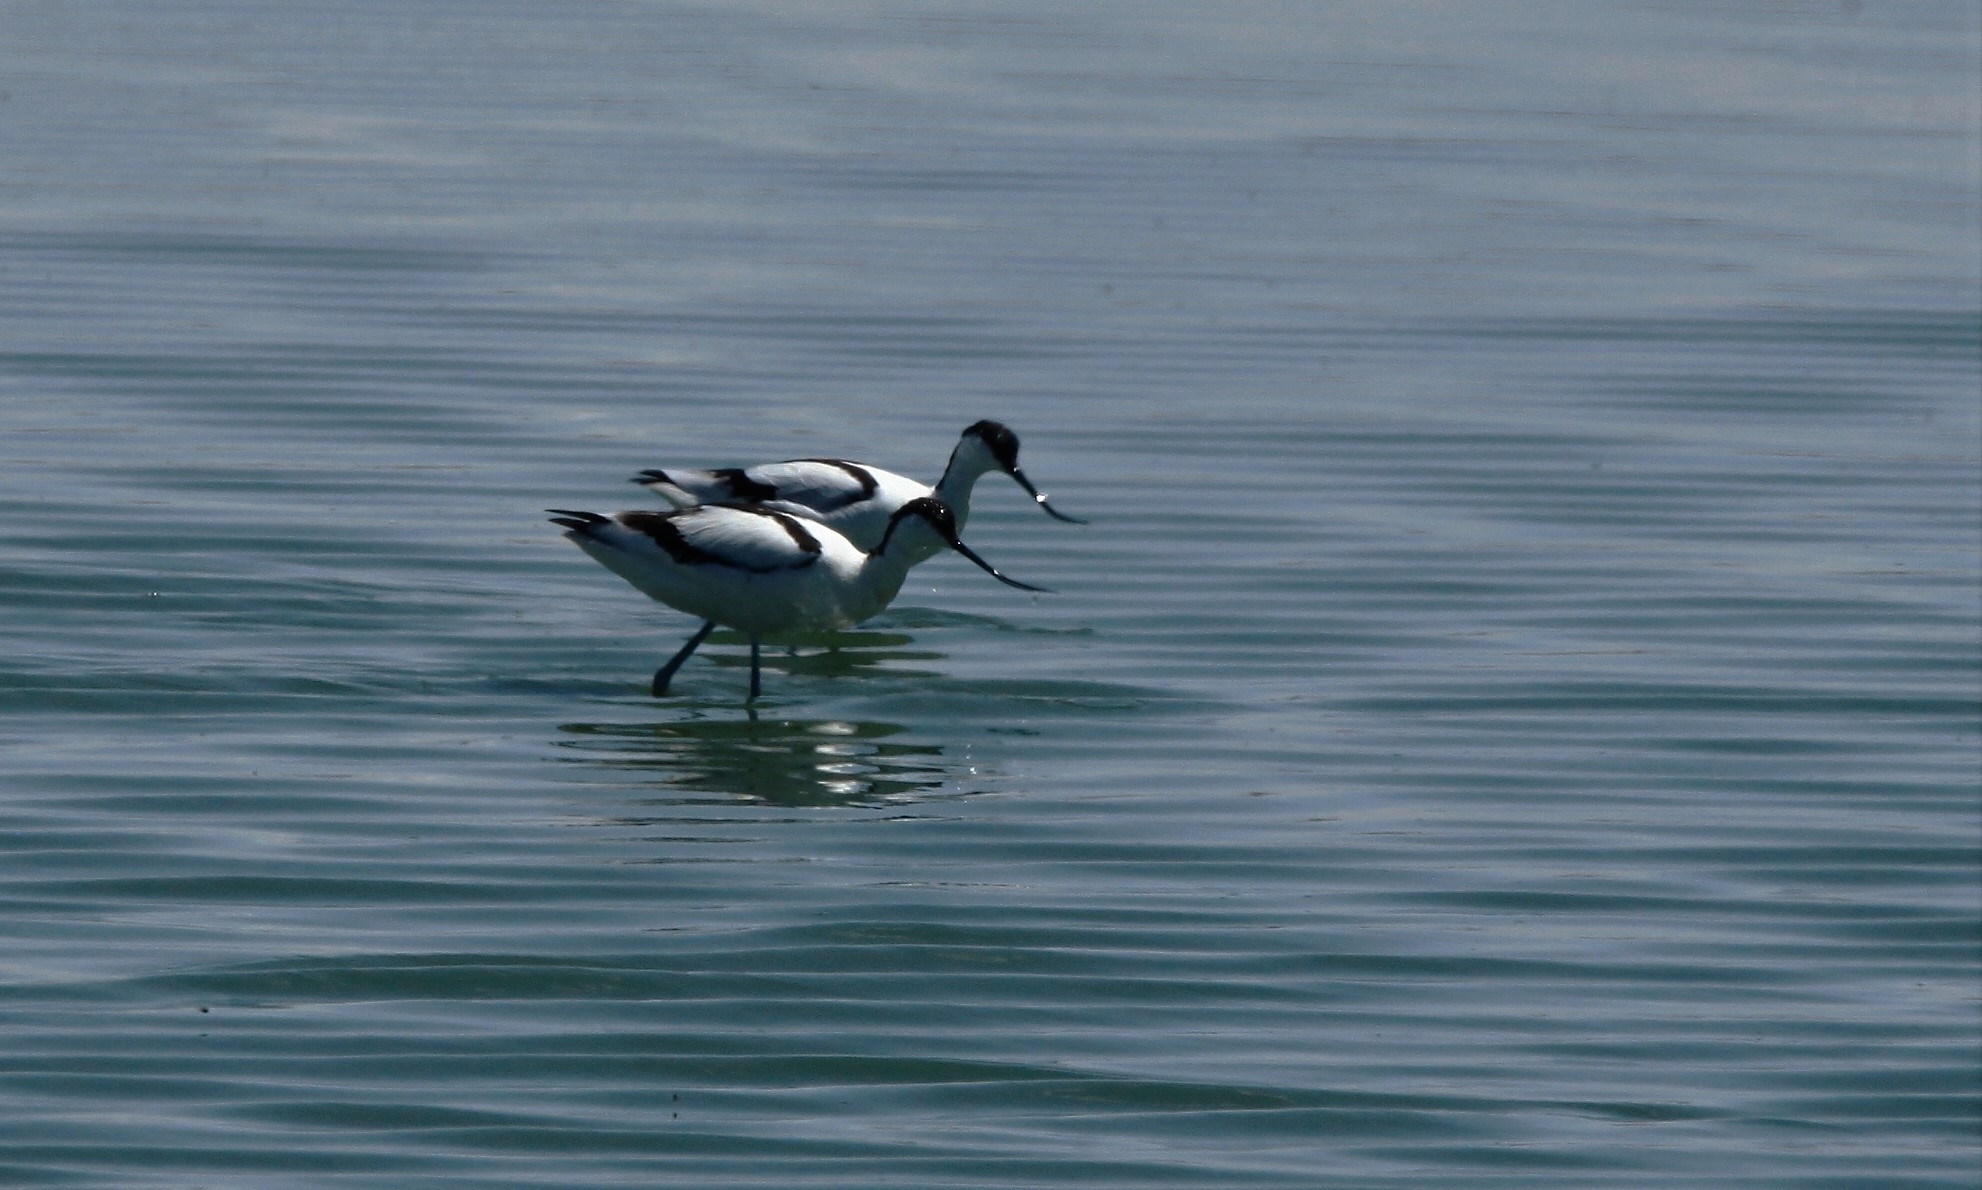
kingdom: Animalia
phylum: Chordata
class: Aves
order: Charadriiformes
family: Recurvirostridae
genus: Recurvirostra
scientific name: Recurvirostra avosetta
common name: Pied avocet
